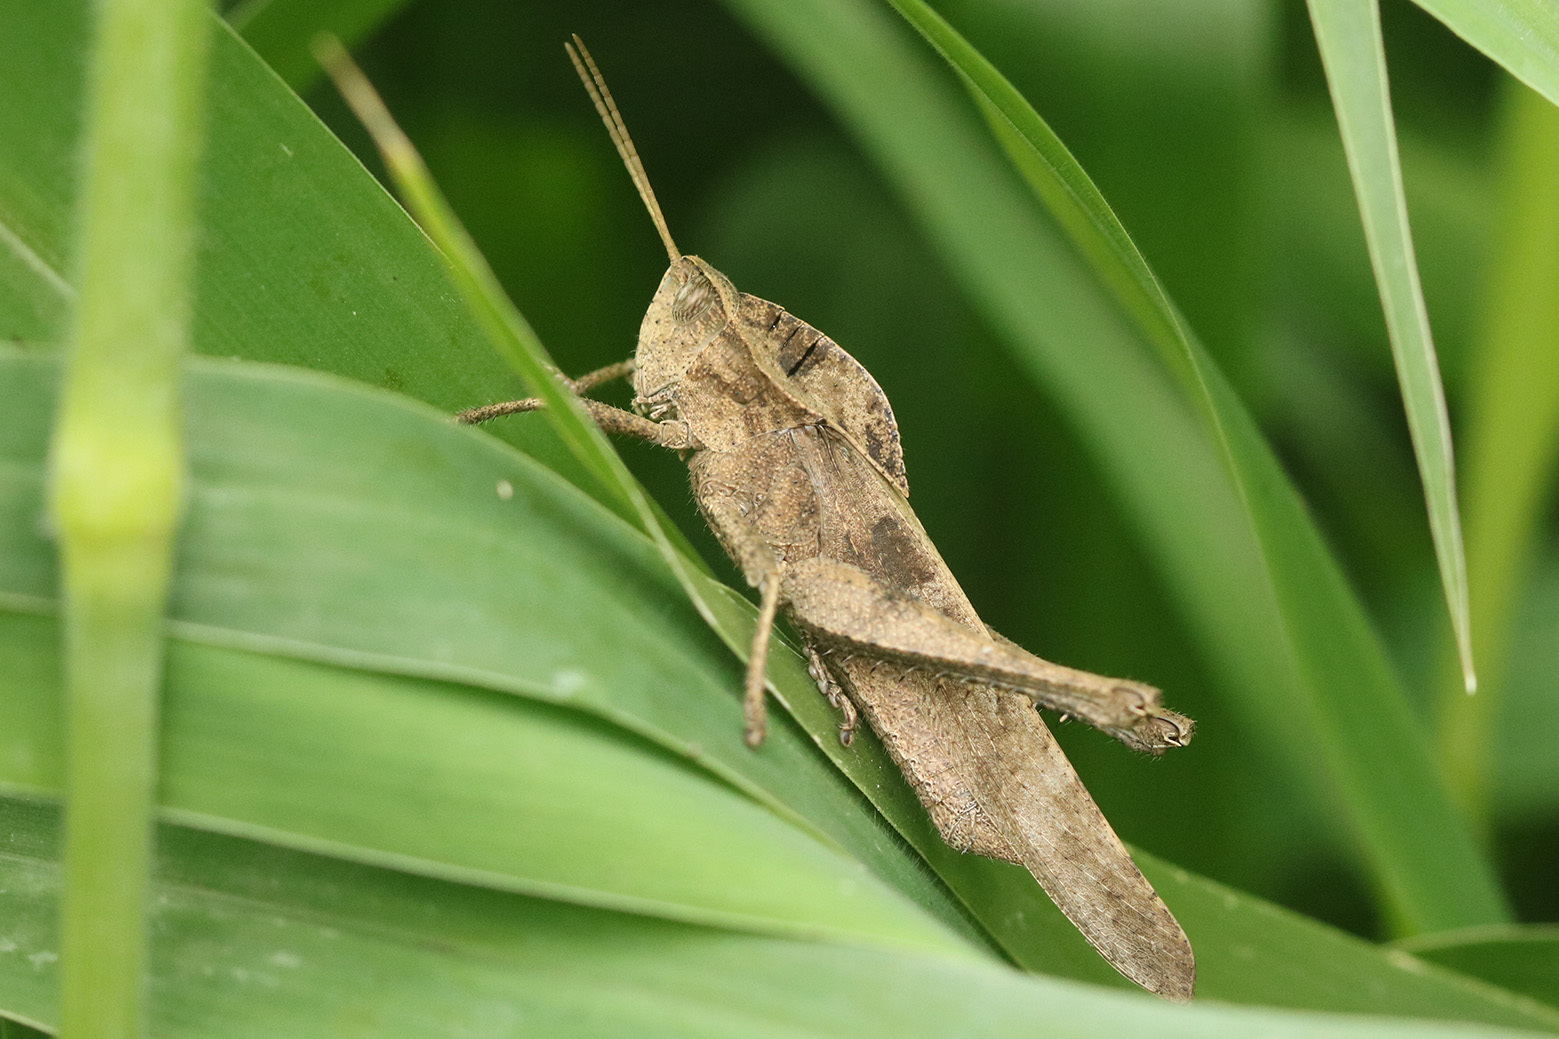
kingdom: Animalia
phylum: Arthropoda
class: Insecta
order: Orthoptera
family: Romaleidae
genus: Xyleus
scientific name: Xyleus discoideus
